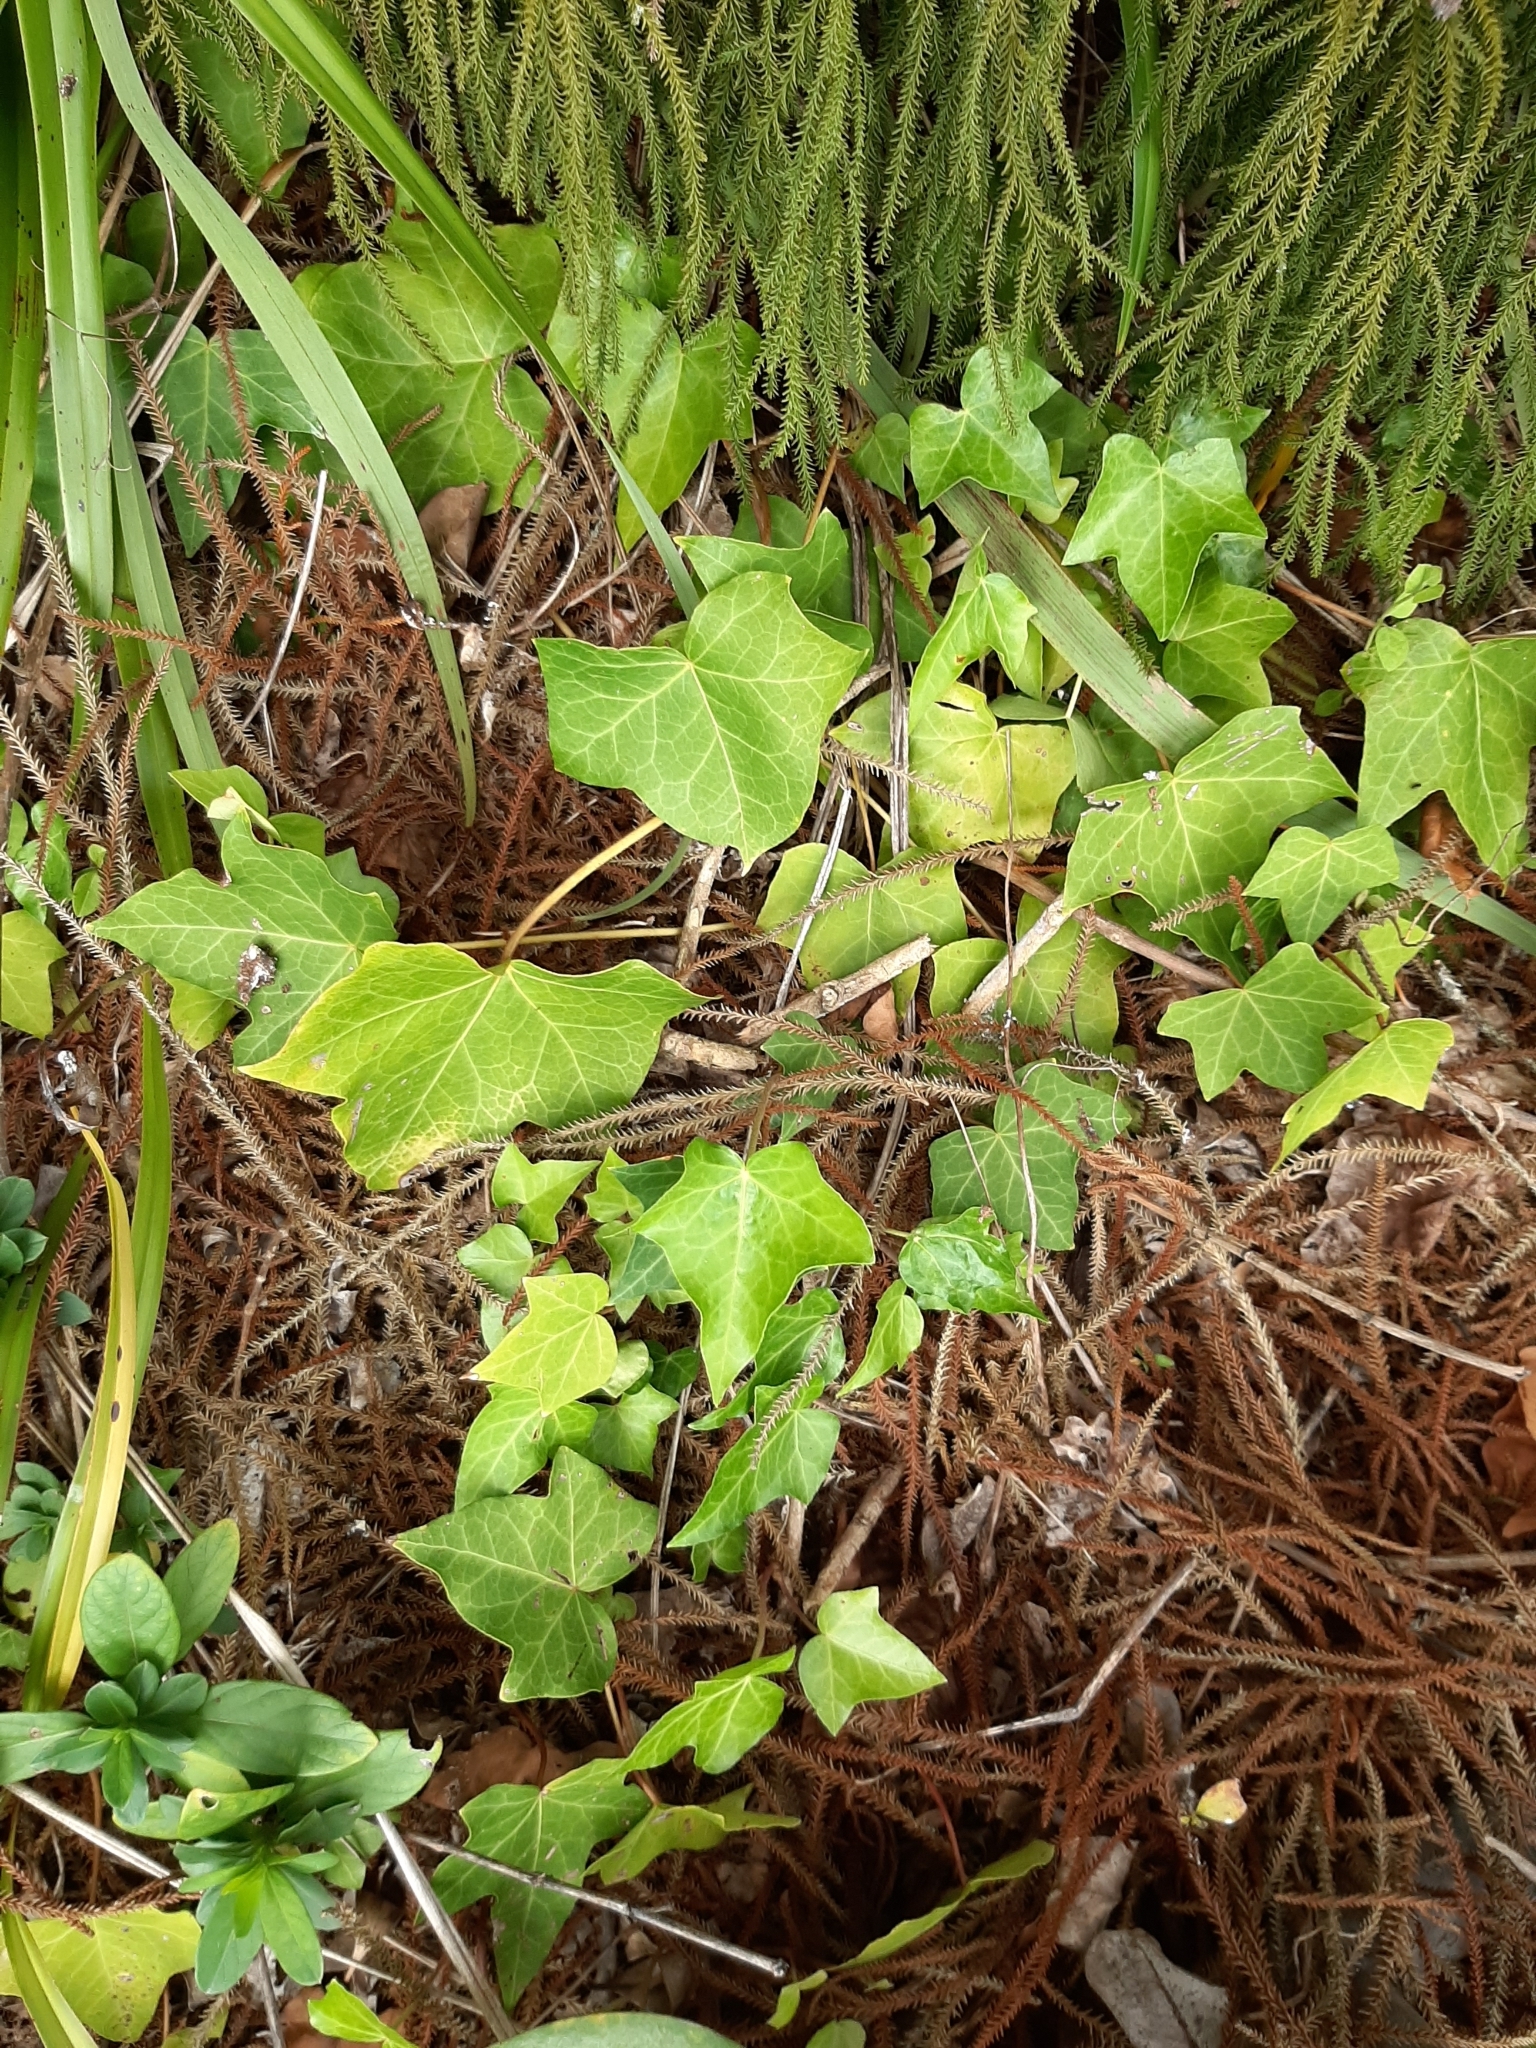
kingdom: Plantae
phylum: Tracheophyta
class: Magnoliopsida
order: Apiales
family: Araliaceae
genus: Hedera
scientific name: Hedera helix
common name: Ivy
